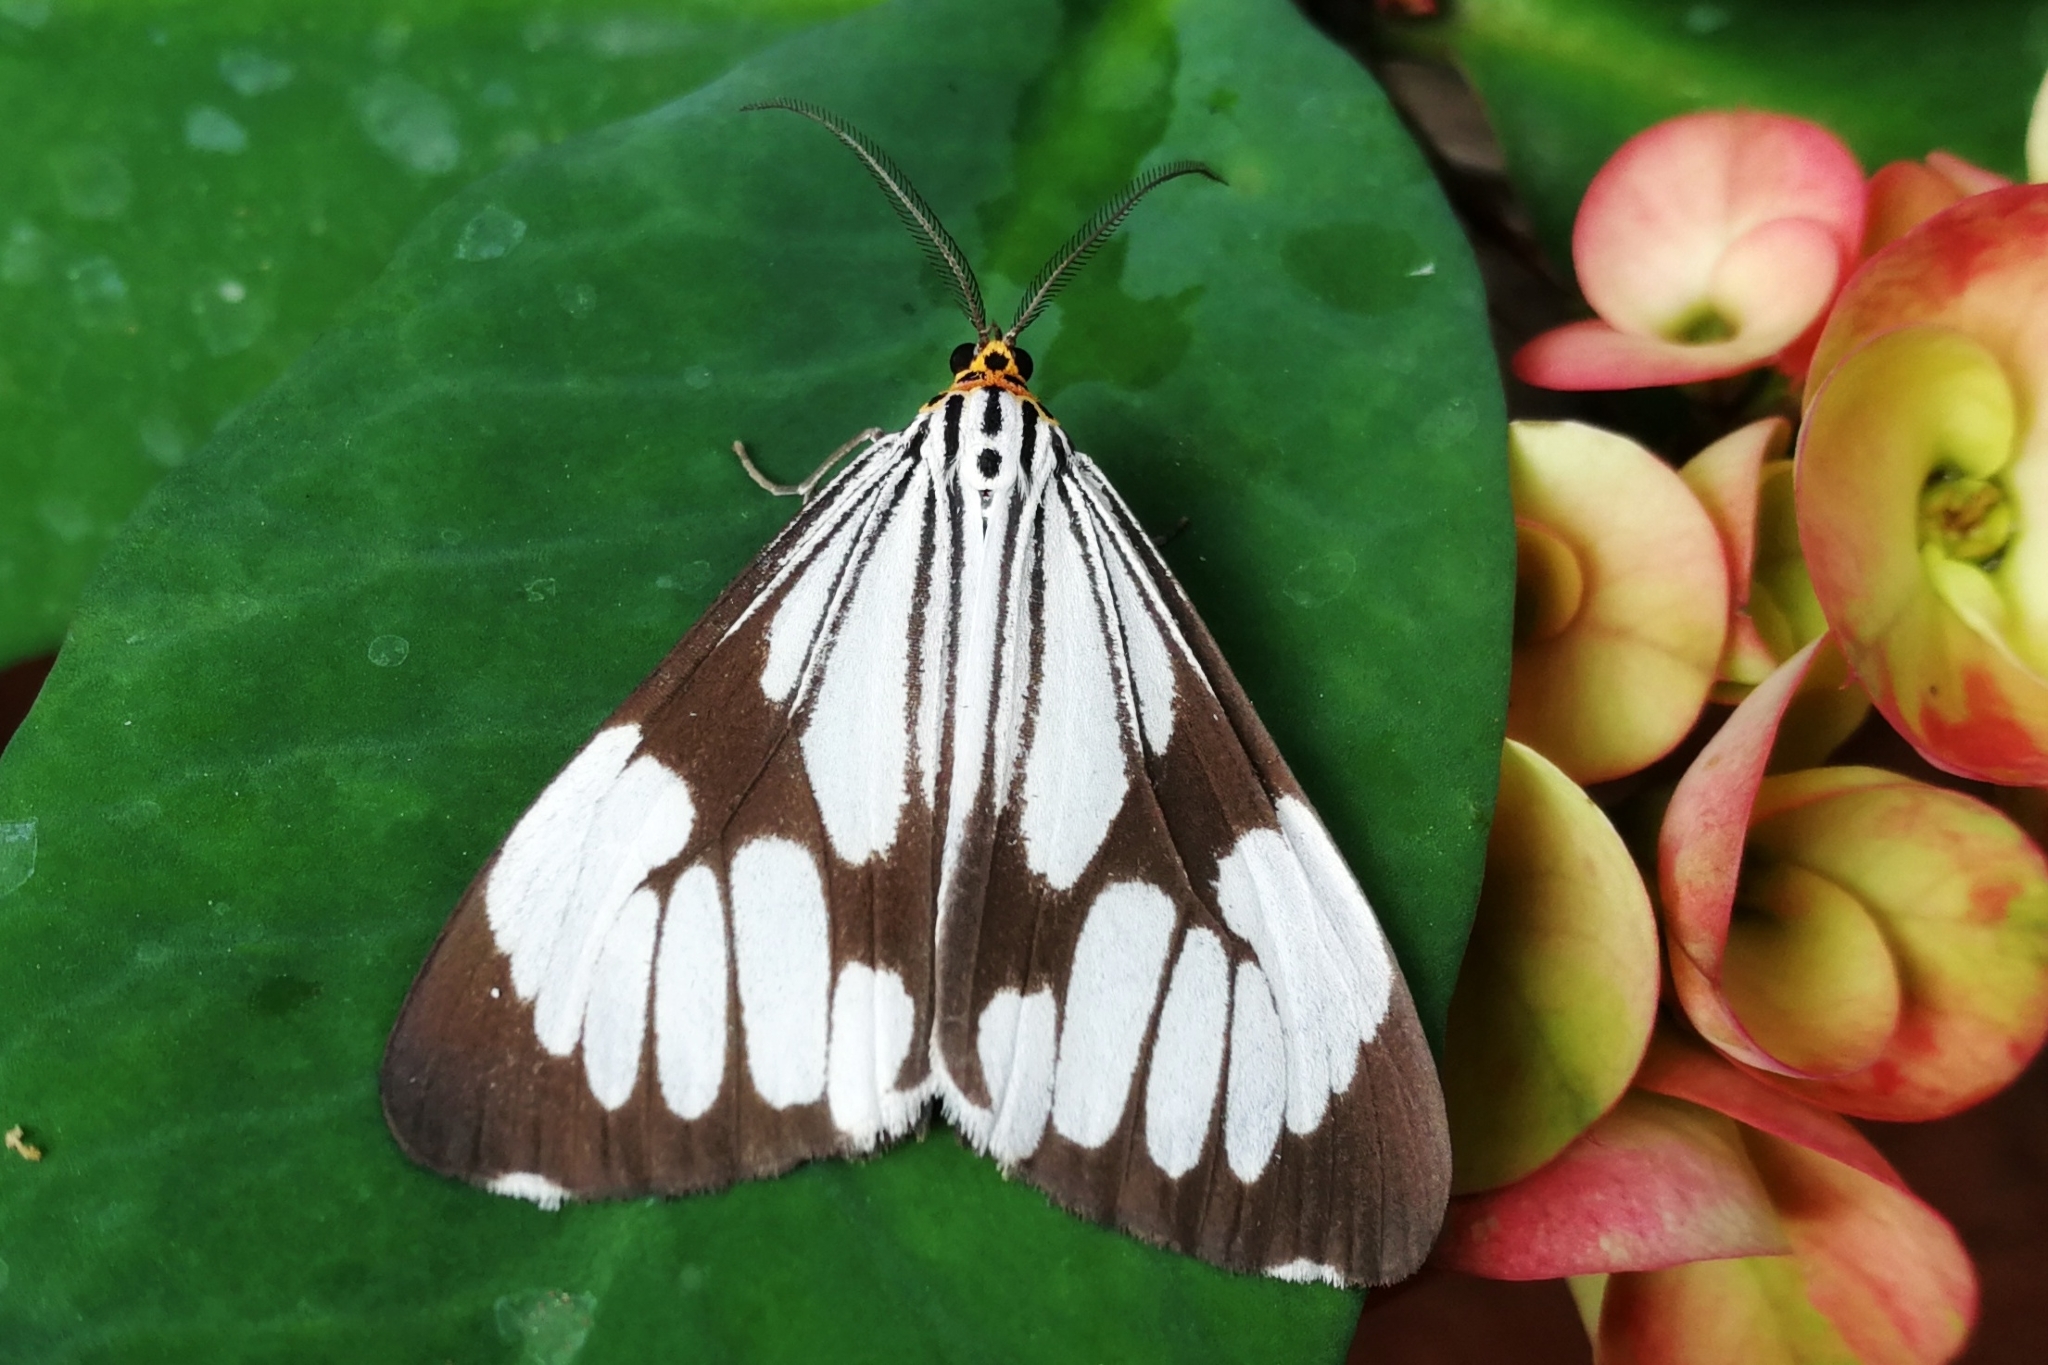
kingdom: Animalia
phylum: Arthropoda
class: Insecta
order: Lepidoptera
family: Erebidae
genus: Nyctemera
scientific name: Nyctemera coleta
